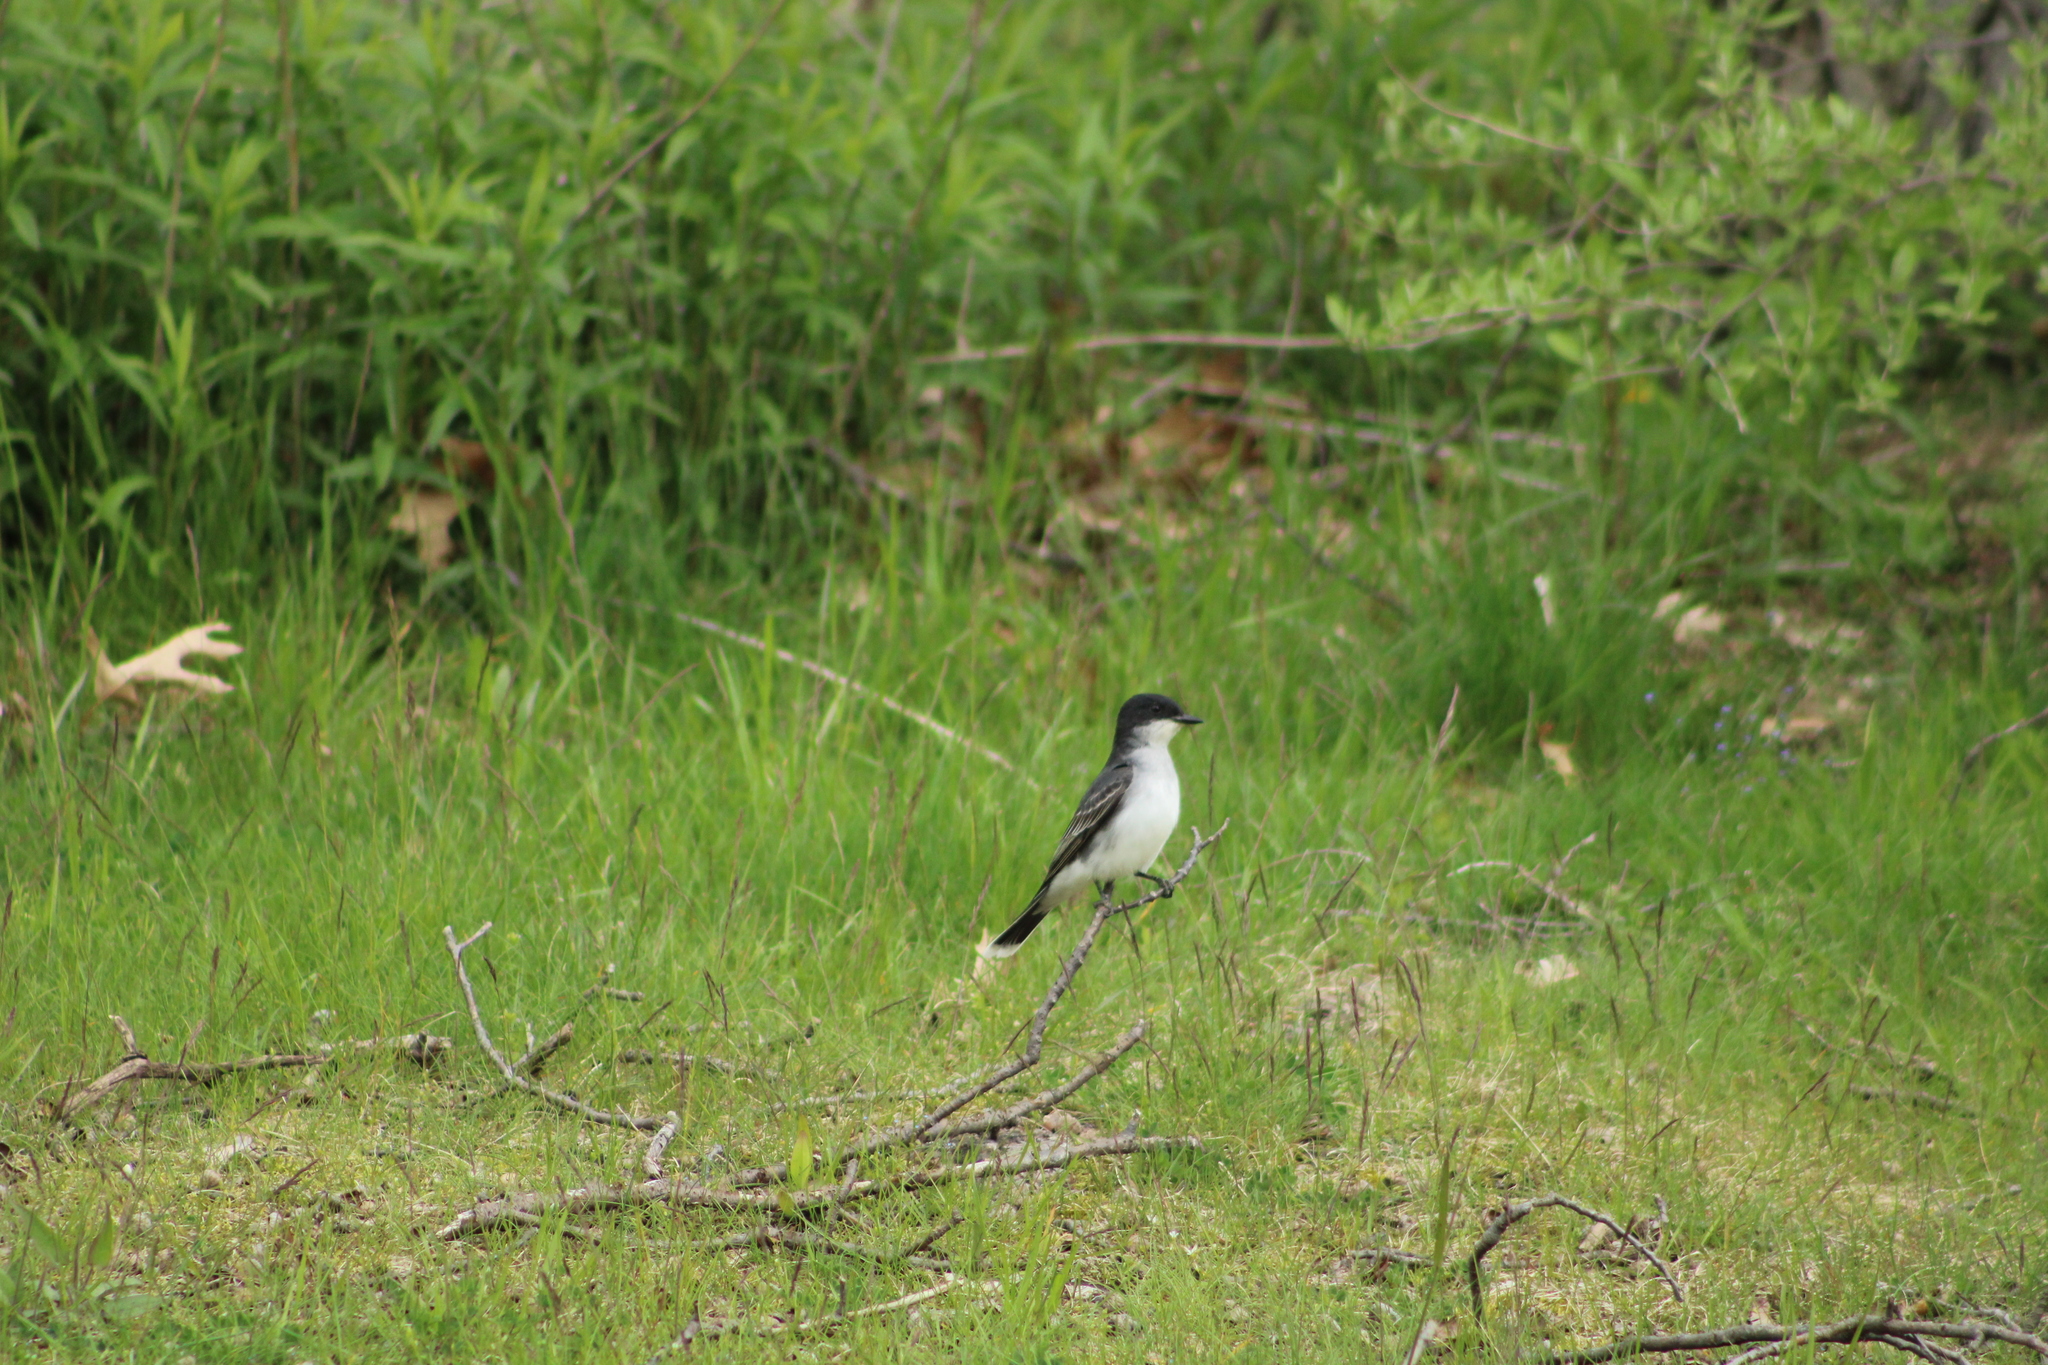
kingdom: Animalia
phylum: Chordata
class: Aves
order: Passeriformes
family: Tyrannidae
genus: Tyrannus
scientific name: Tyrannus tyrannus
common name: Eastern kingbird
